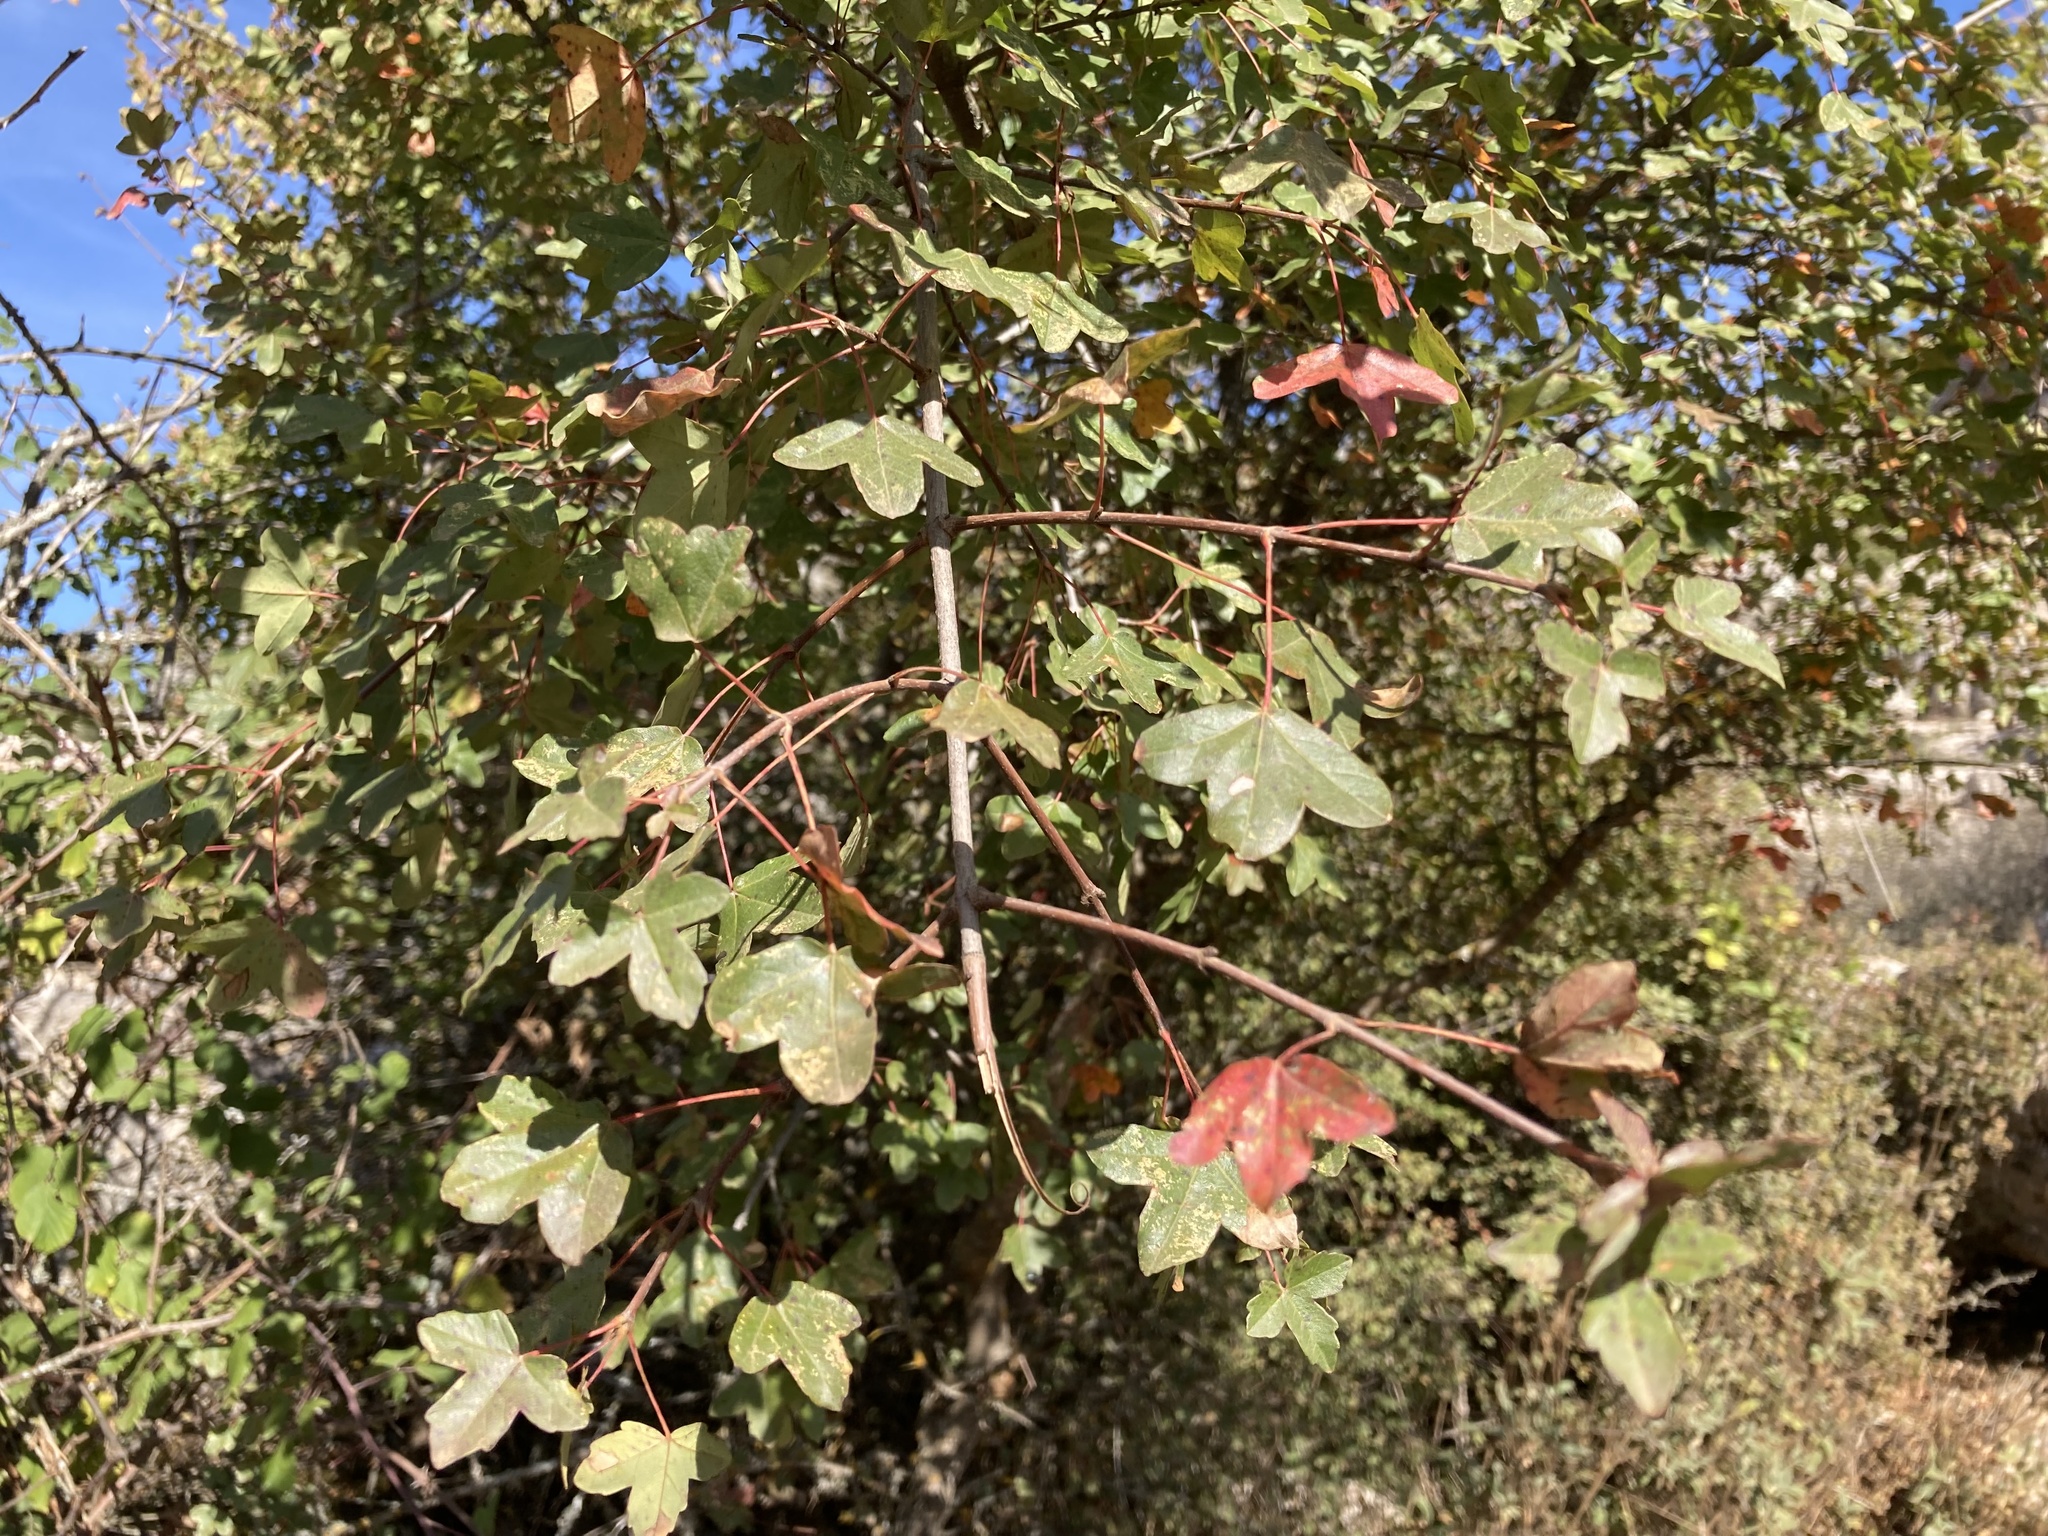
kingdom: Plantae
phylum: Tracheophyta
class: Magnoliopsida
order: Sapindales
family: Sapindaceae
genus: Acer
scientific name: Acer monspessulanum
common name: Montpellier maple
